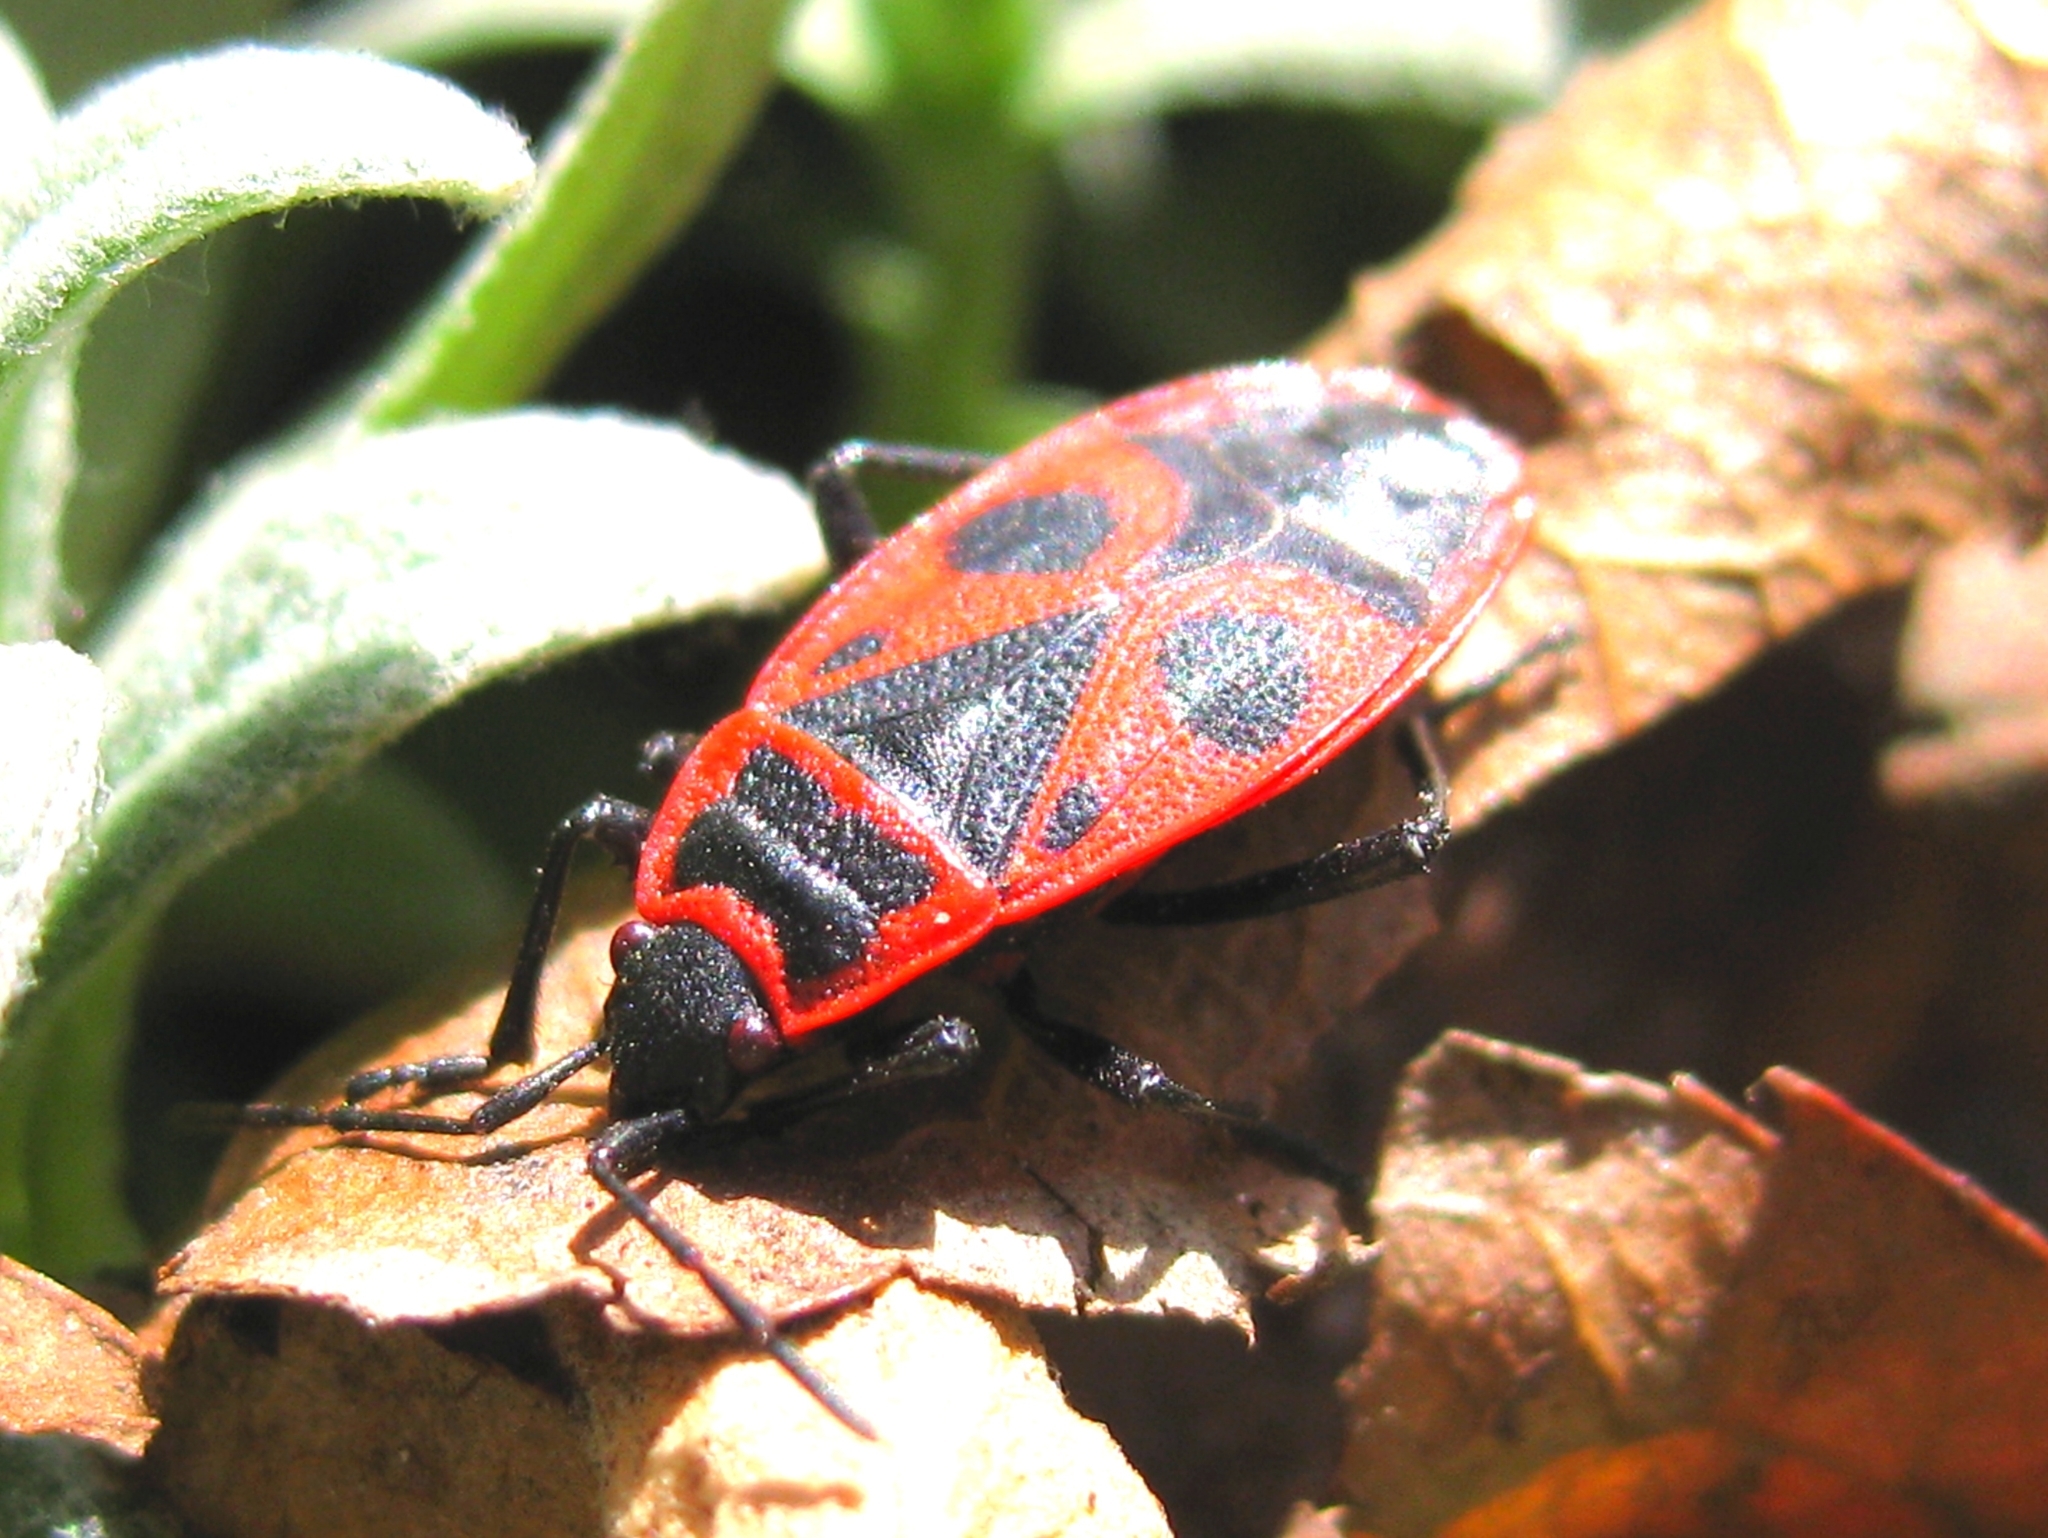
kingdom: Animalia
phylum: Arthropoda
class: Insecta
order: Hemiptera
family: Pyrrhocoridae
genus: Pyrrhocoris
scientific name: Pyrrhocoris apterus
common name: Firebug
